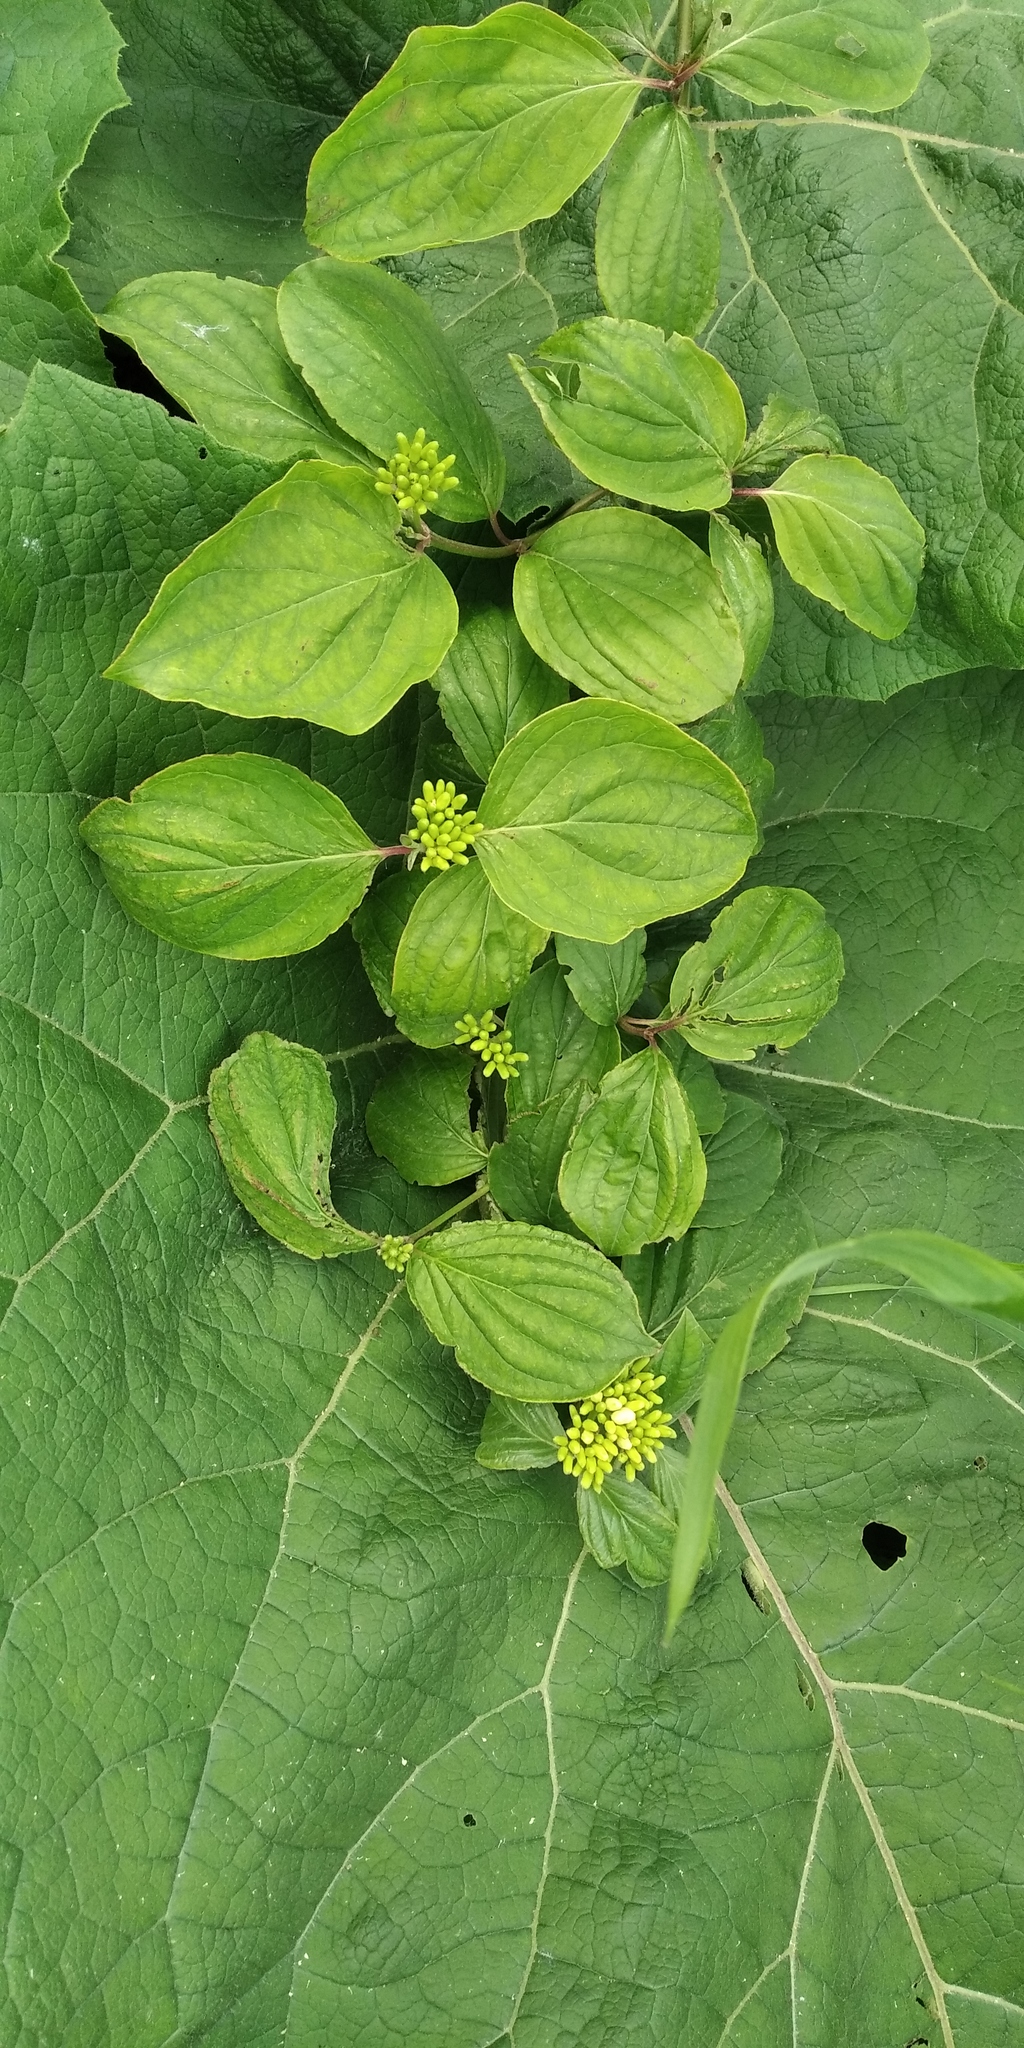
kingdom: Plantae
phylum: Tracheophyta
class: Magnoliopsida
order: Cornales
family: Cornaceae
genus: Cornus
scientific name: Cornus sanguinea
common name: Dogwood
